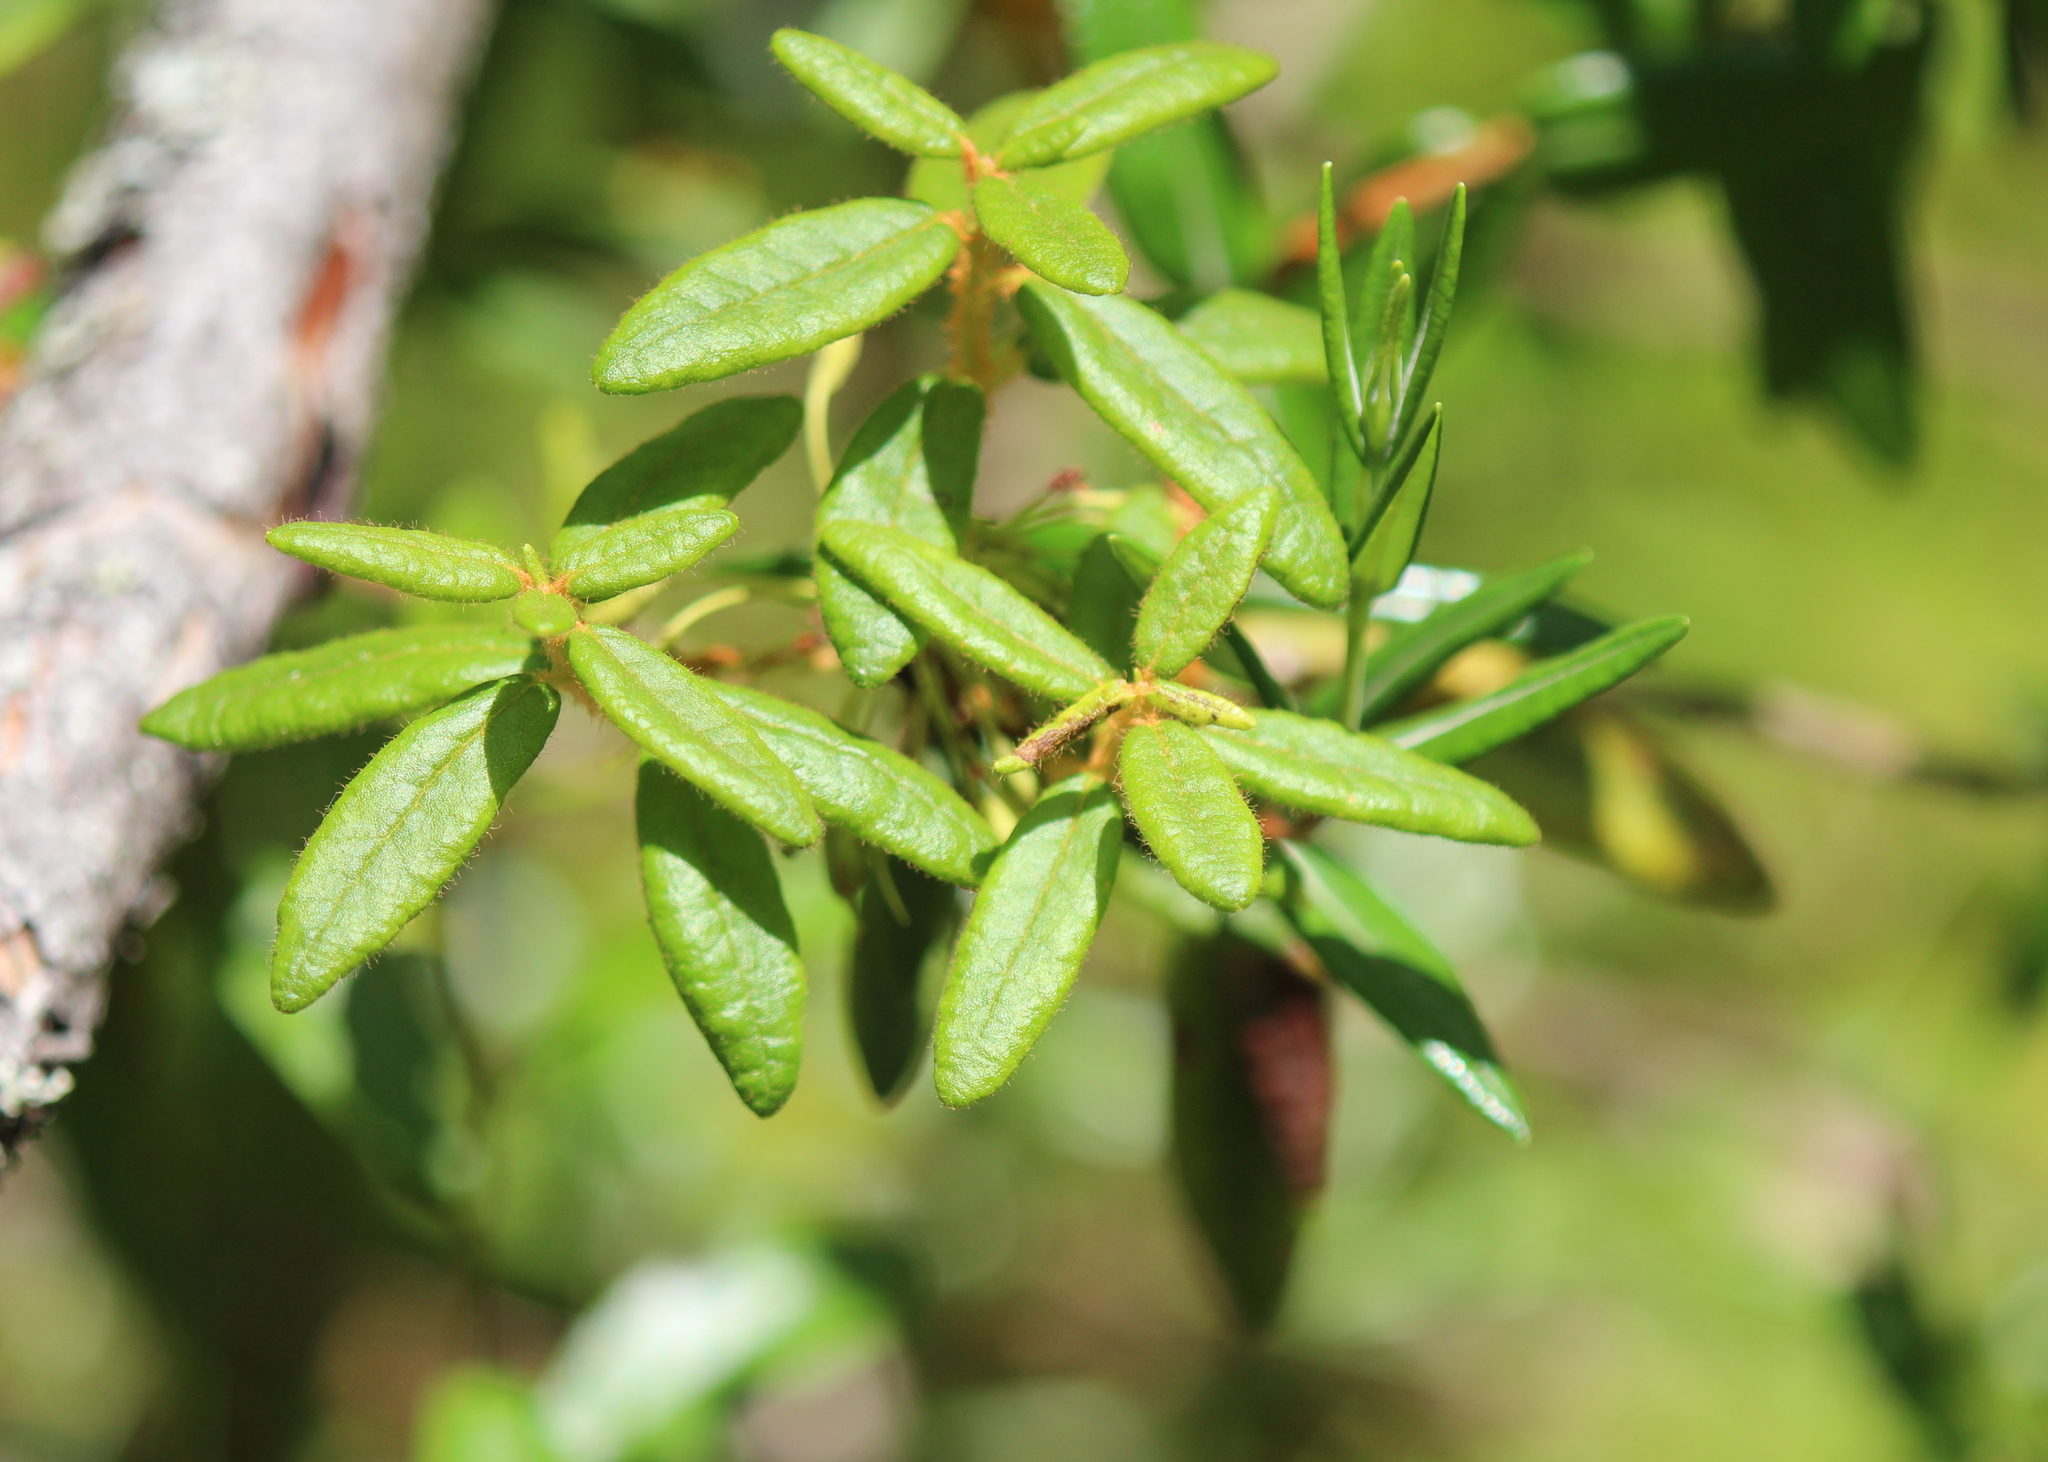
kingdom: Plantae
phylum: Tracheophyta
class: Magnoliopsida
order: Ericales
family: Ericaceae
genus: Rhododendron
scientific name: Rhododendron groenlandicum
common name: Bog labrador tea
